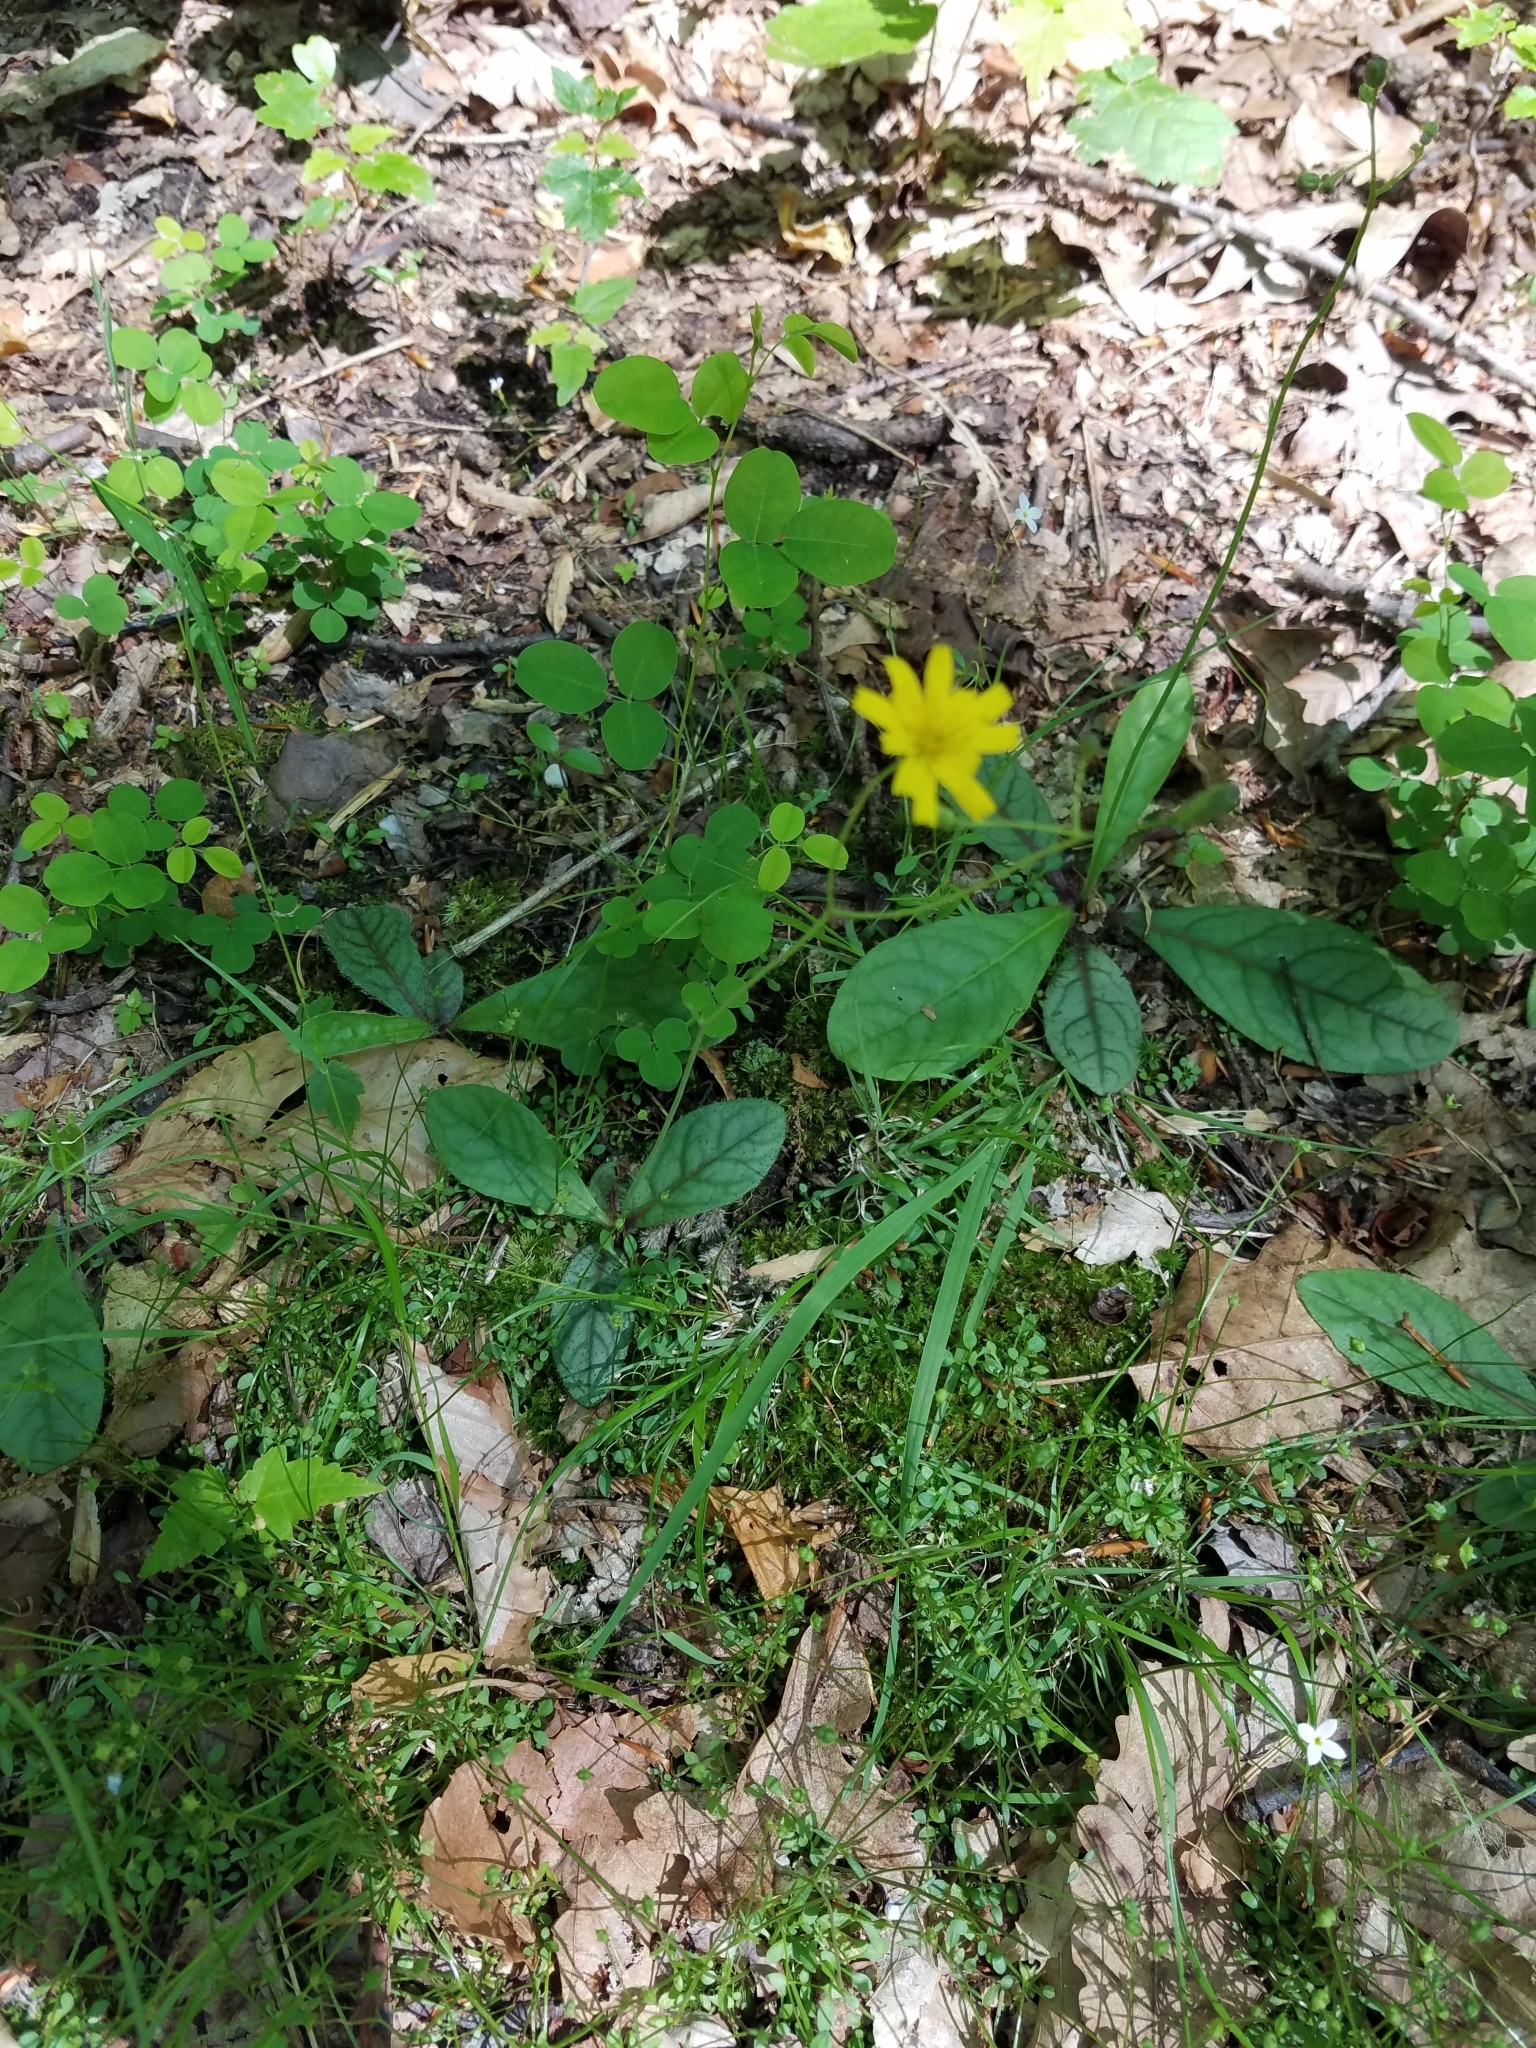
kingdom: Plantae
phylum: Tracheophyta
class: Magnoliopsida
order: Asterales
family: Asteraceae
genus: Hieracium
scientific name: Hieracium venosum
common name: Rattlesnake hawkweed
